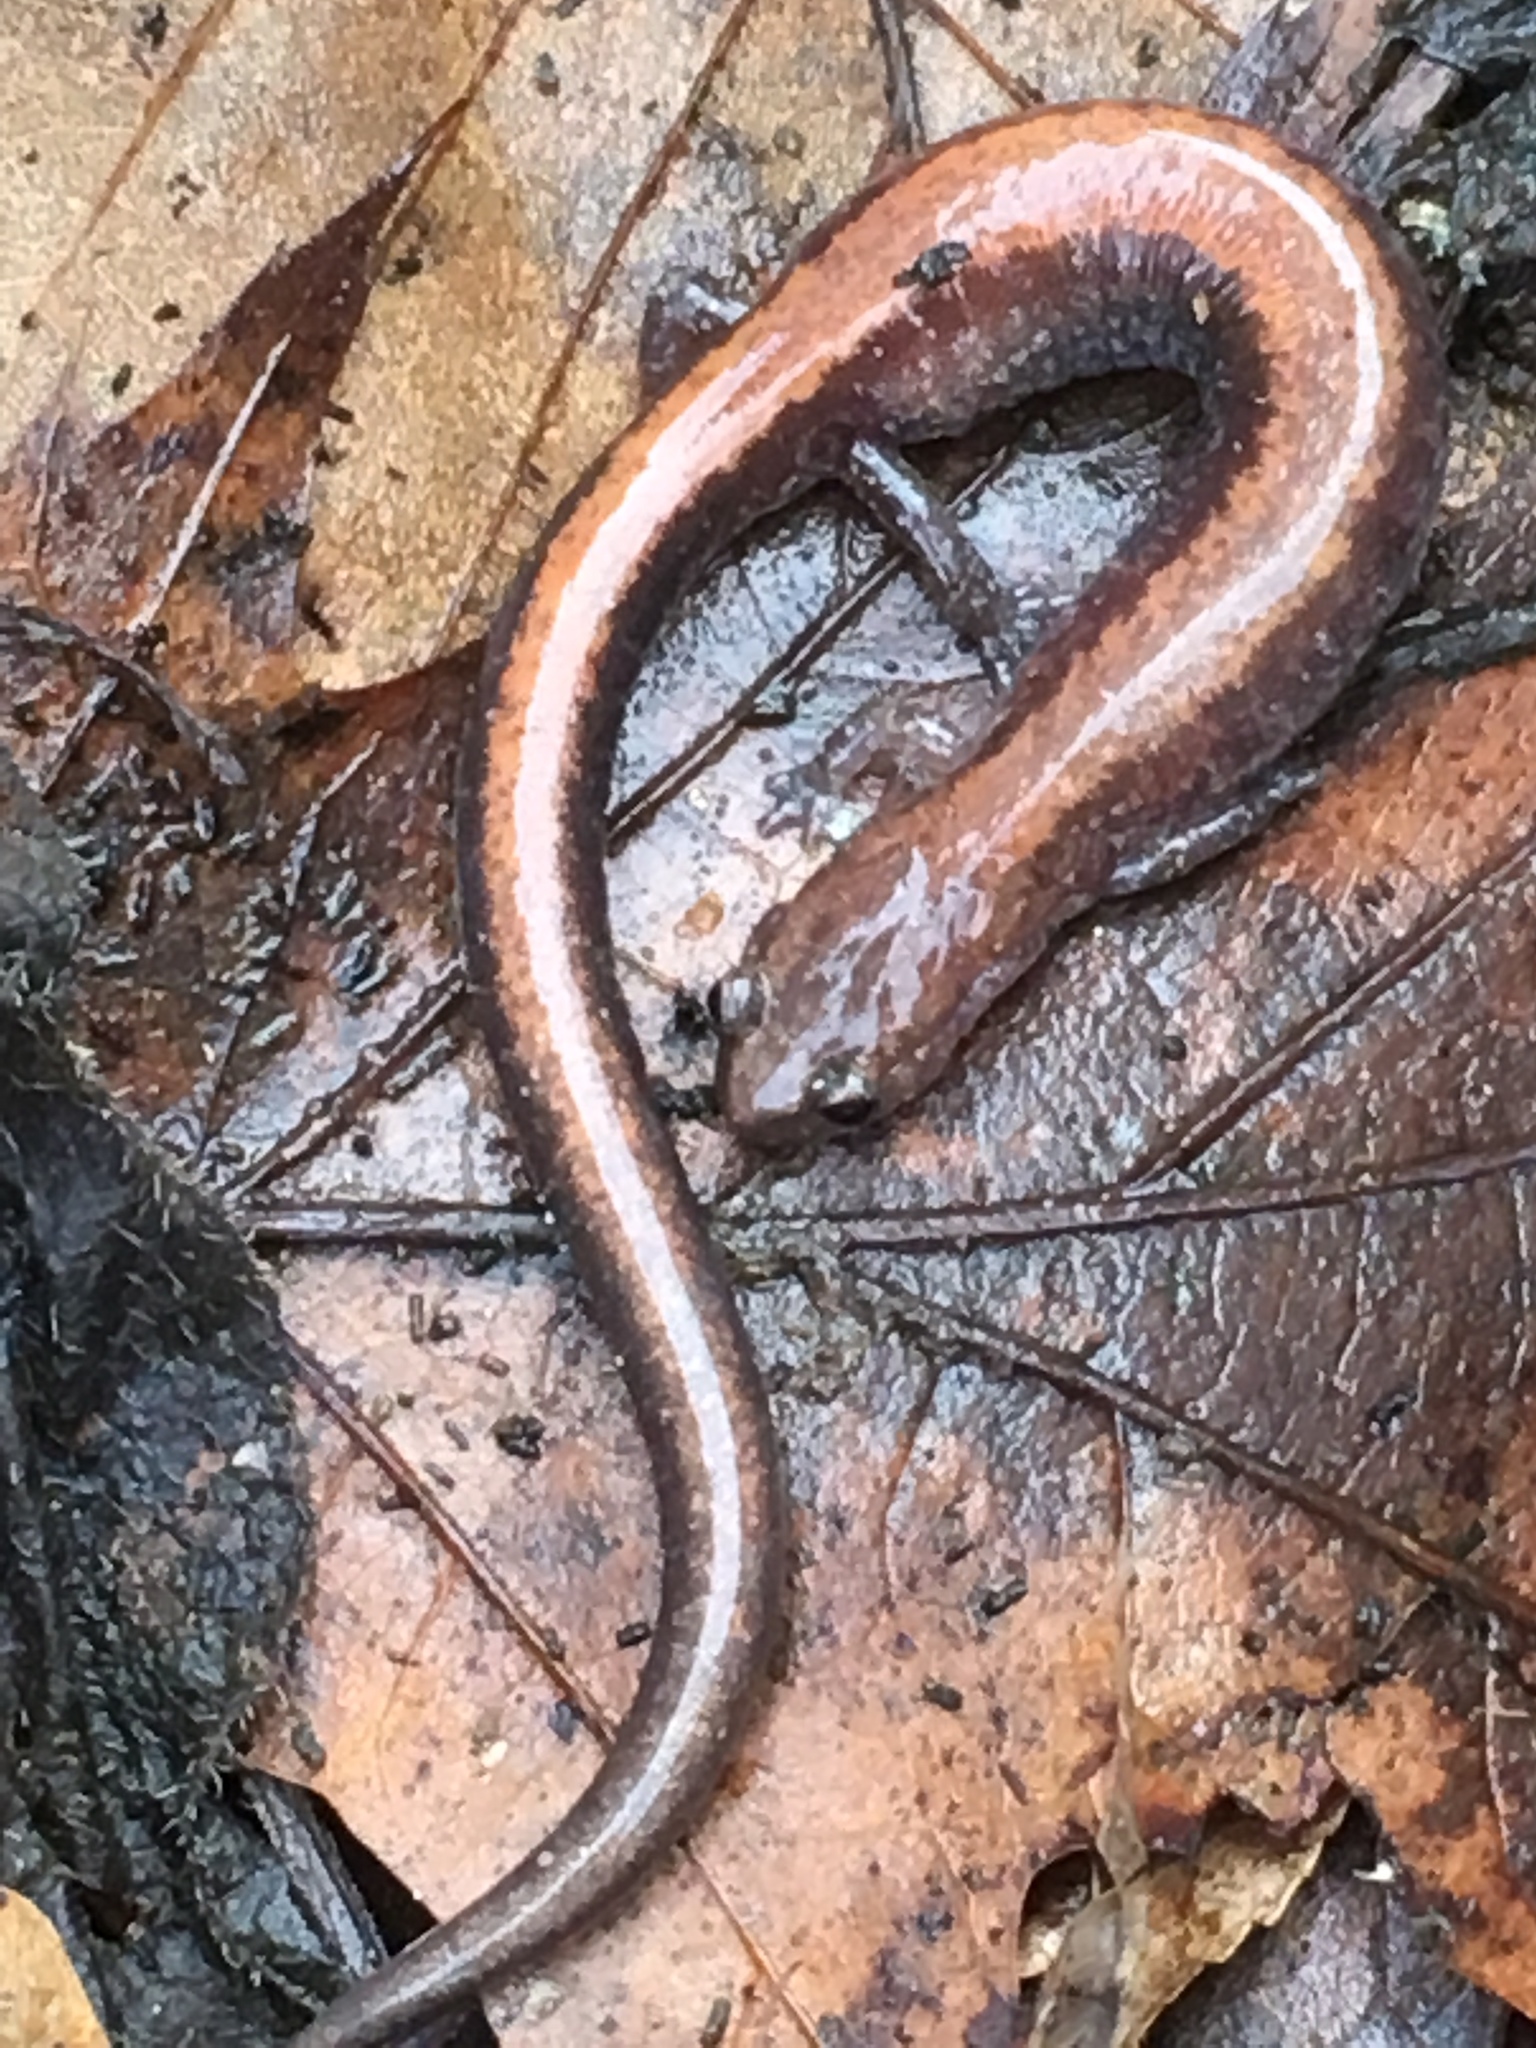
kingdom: Animalia
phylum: Chordata
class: Amphibia
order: Caudata
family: Plethodontidae
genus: Plethodon
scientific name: Plethodon cinereus
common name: Redback salamander
